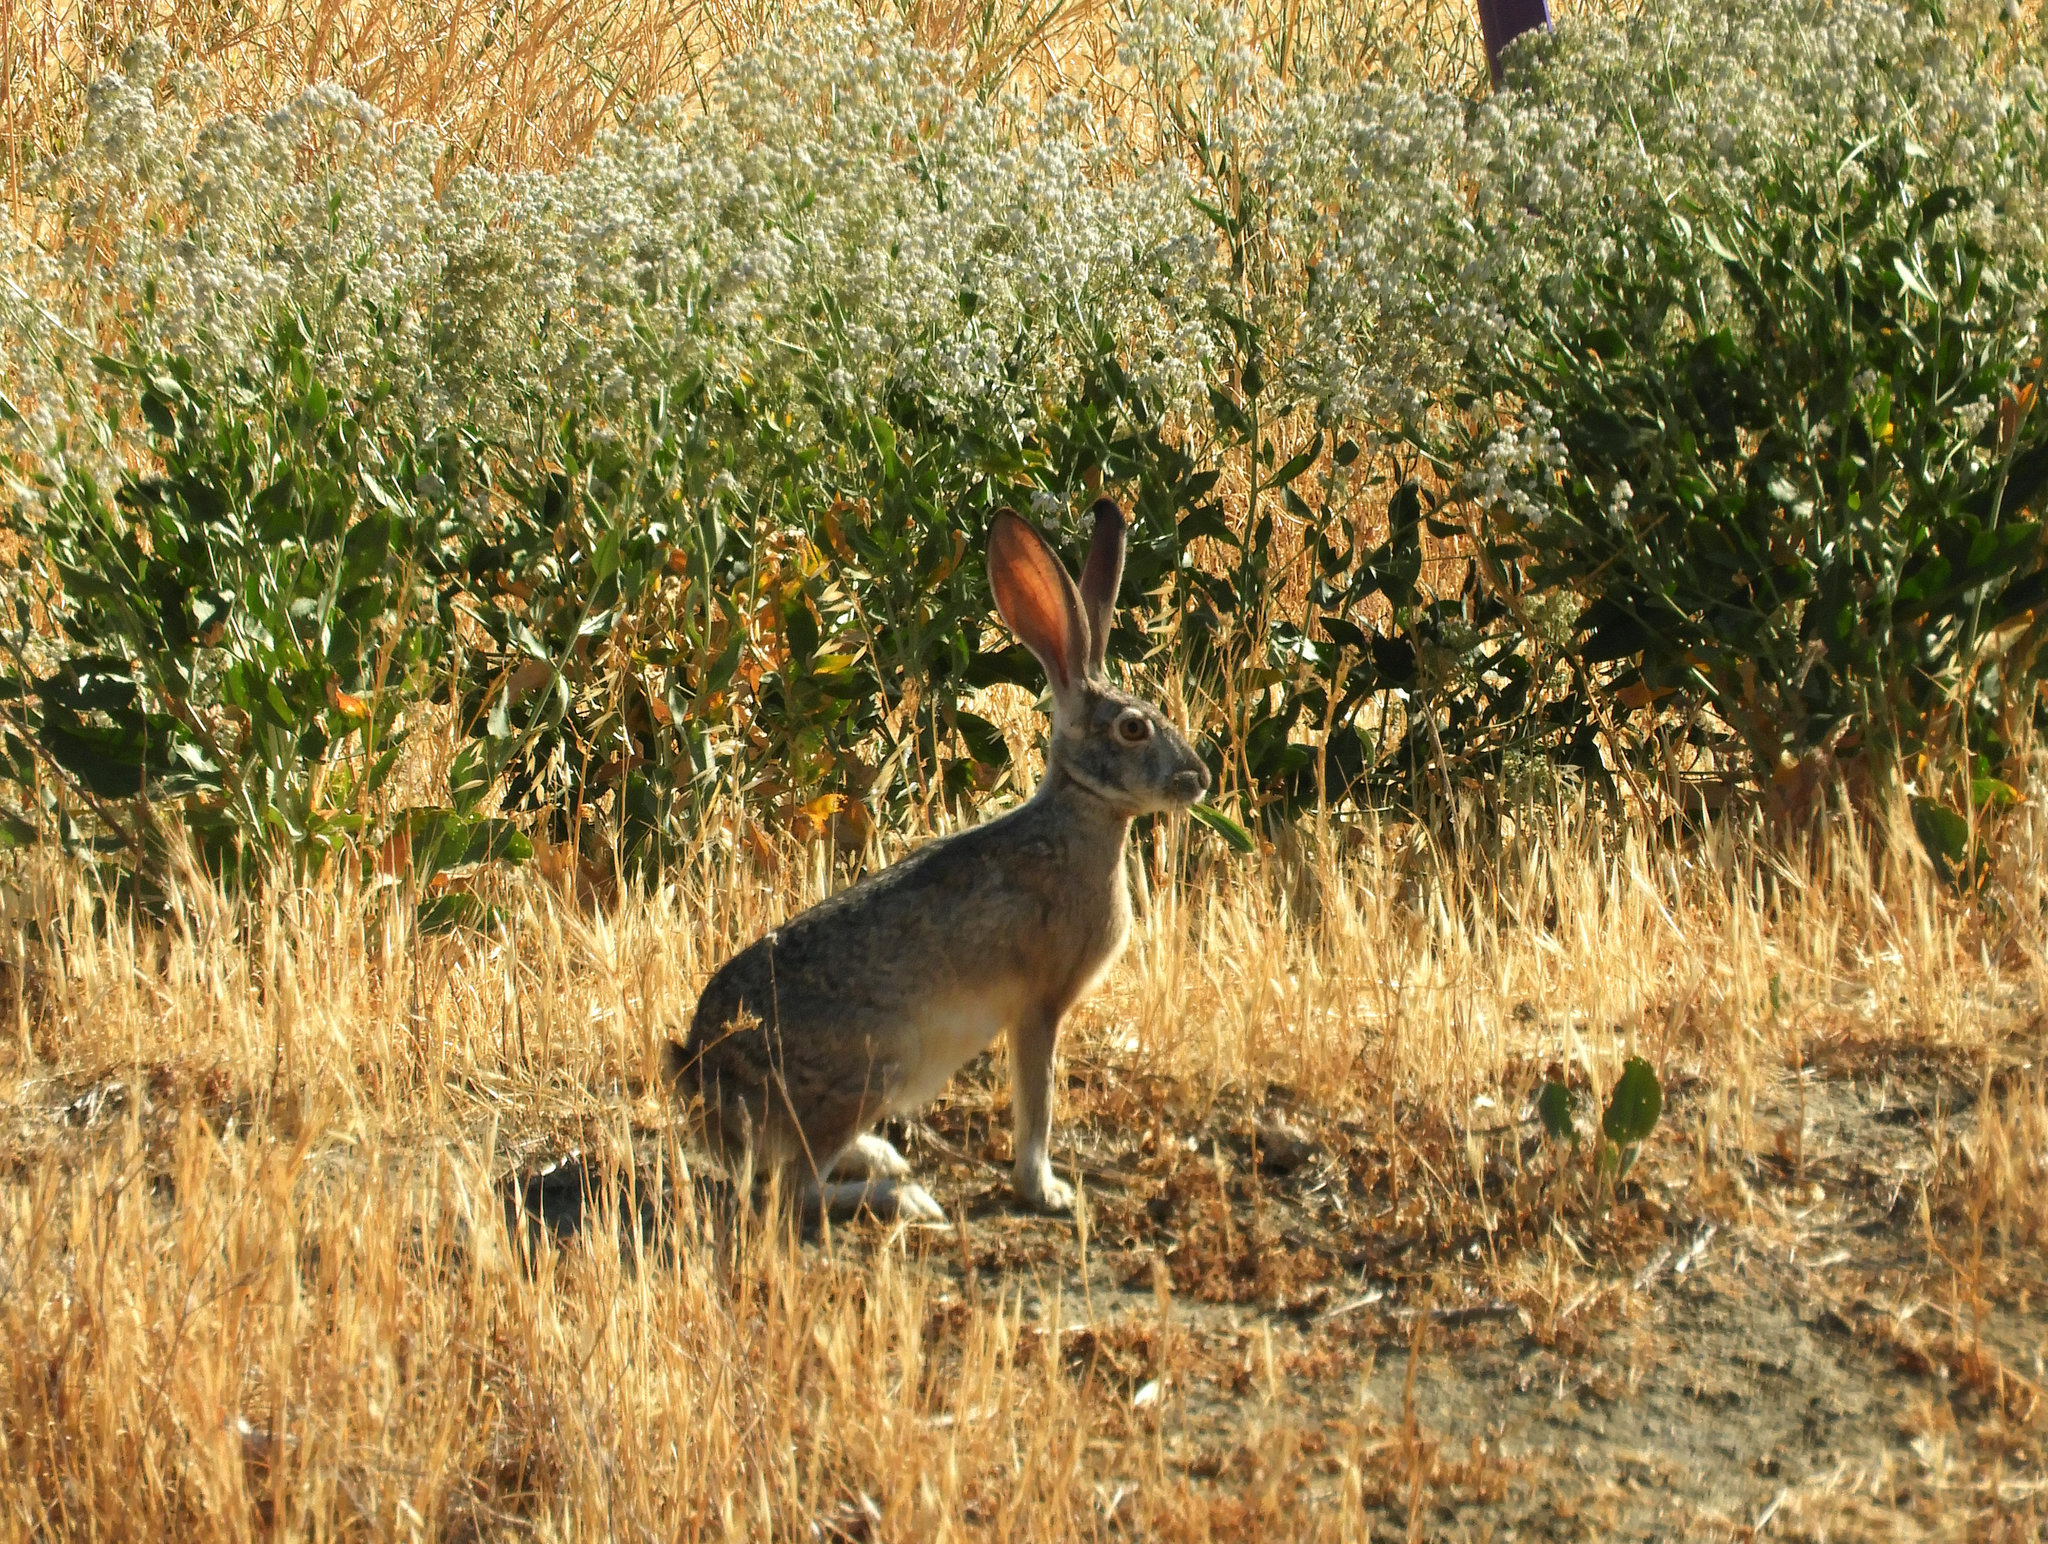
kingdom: Animalia
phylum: Chordata
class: Mammalia
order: Lagomorpha
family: Leporidae
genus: Lepus
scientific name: Lepus californicus
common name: Black-tailed jackrabbit
